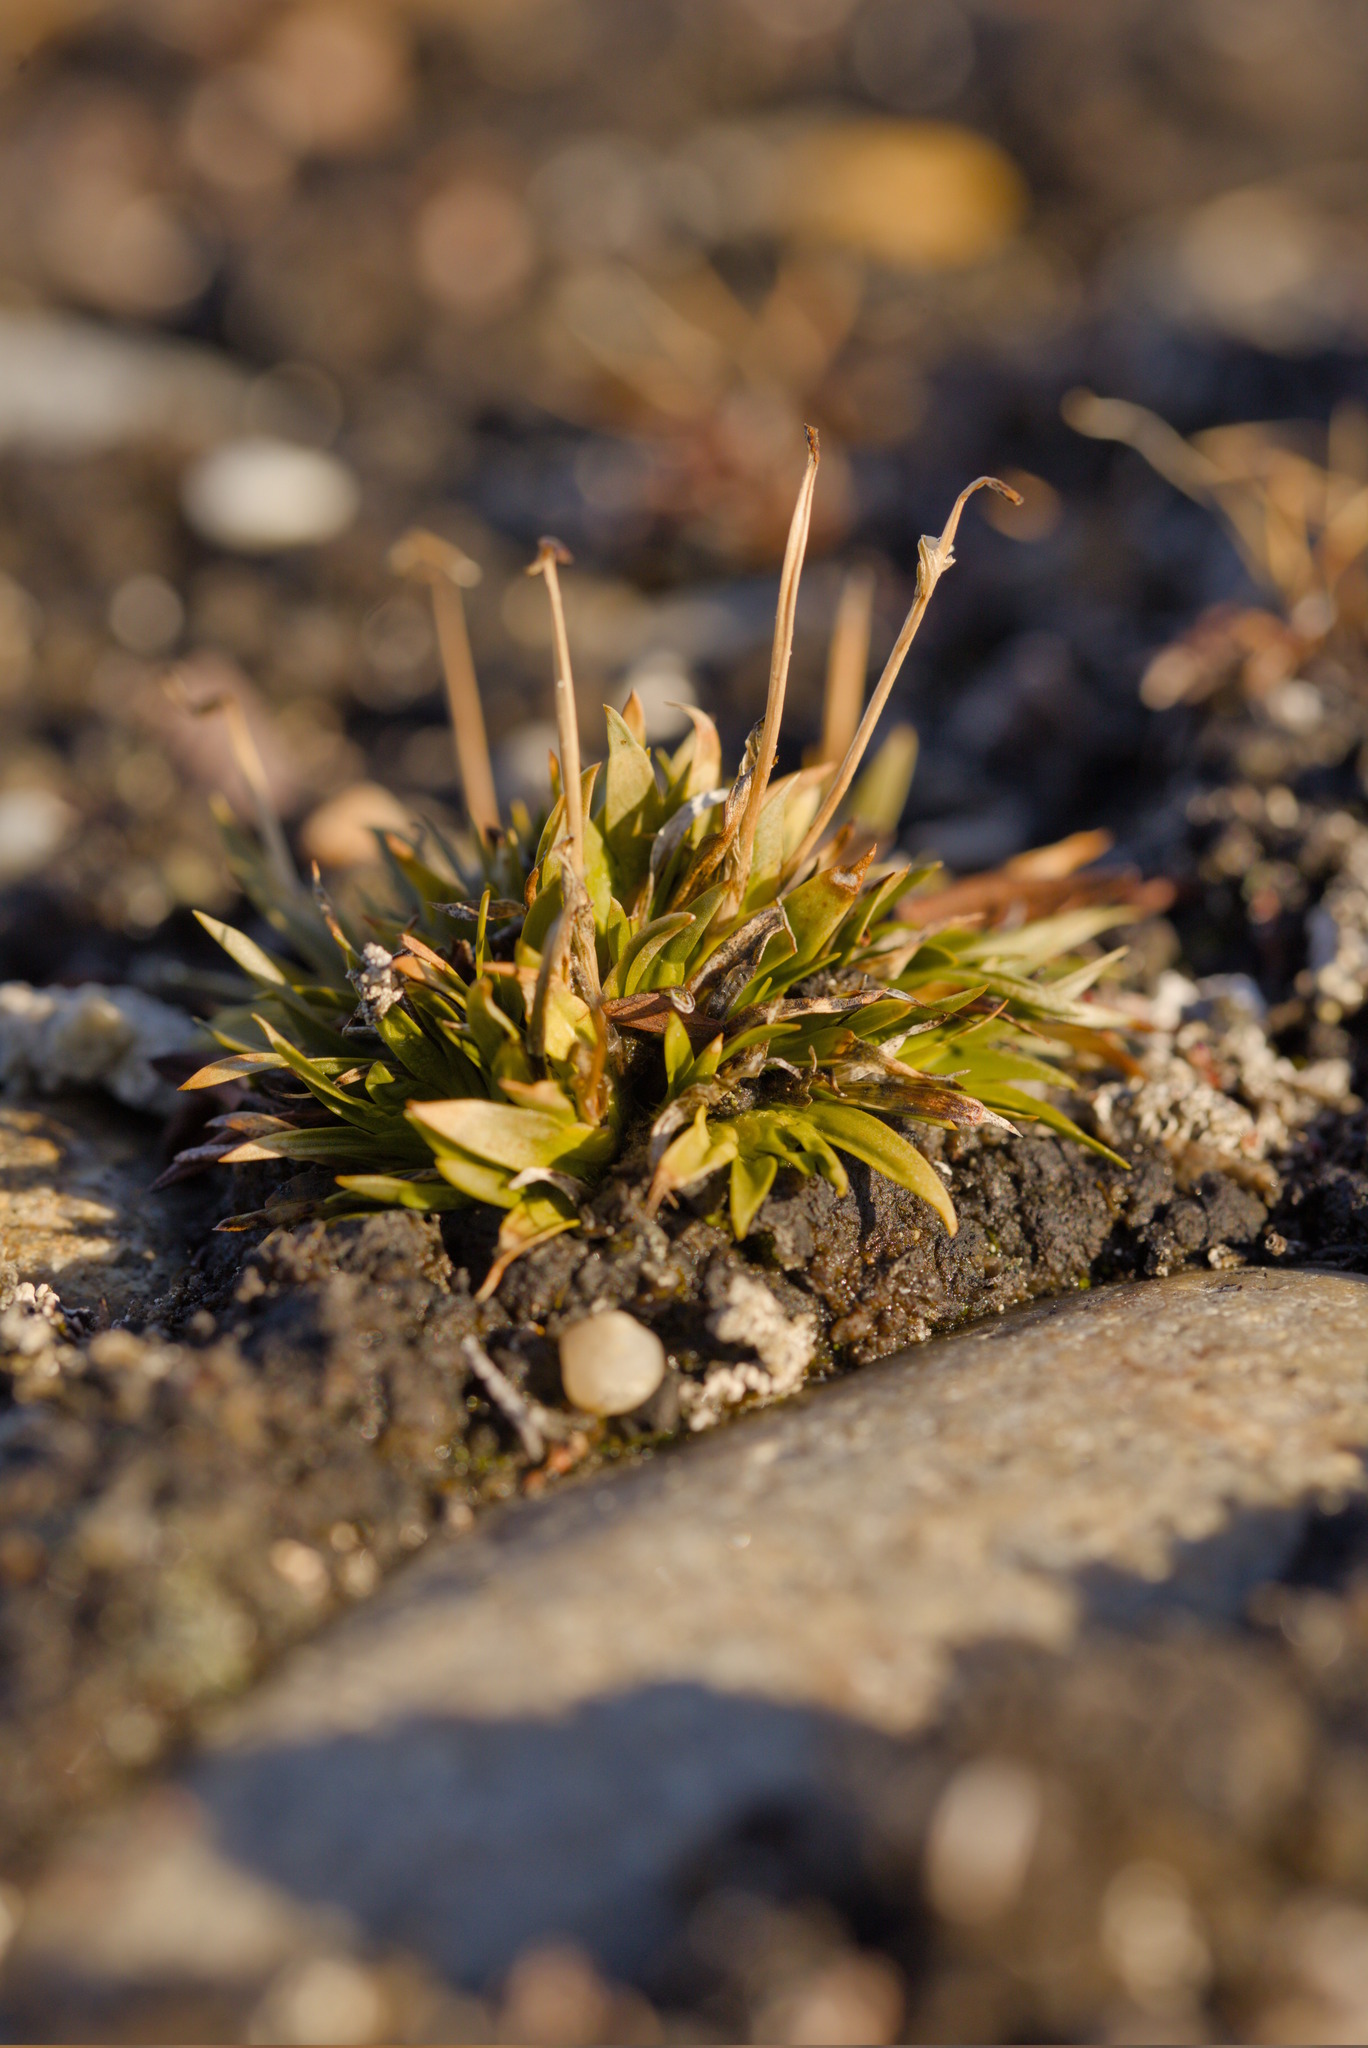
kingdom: Plantae
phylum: Tracheophyta
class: Liliopsida
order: Alismatales
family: Tofieldiaceae
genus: Tofieldia
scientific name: Tofieldia coccinea
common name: Northern false asphodel
